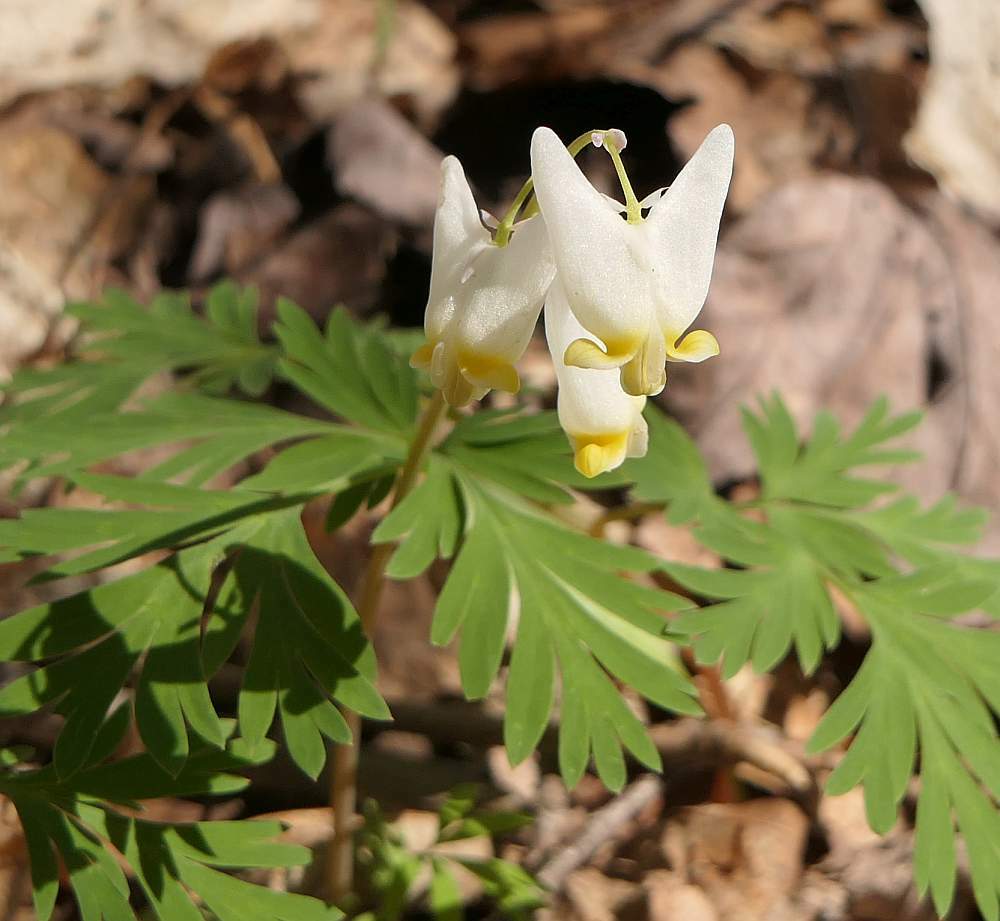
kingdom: Plantae
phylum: Tracheophyta
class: Magnoliopsida
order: Ranunculales
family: Papaveraceae
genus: Dicentra
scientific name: Dicentra cucullaria
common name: Dutchman's breeches
